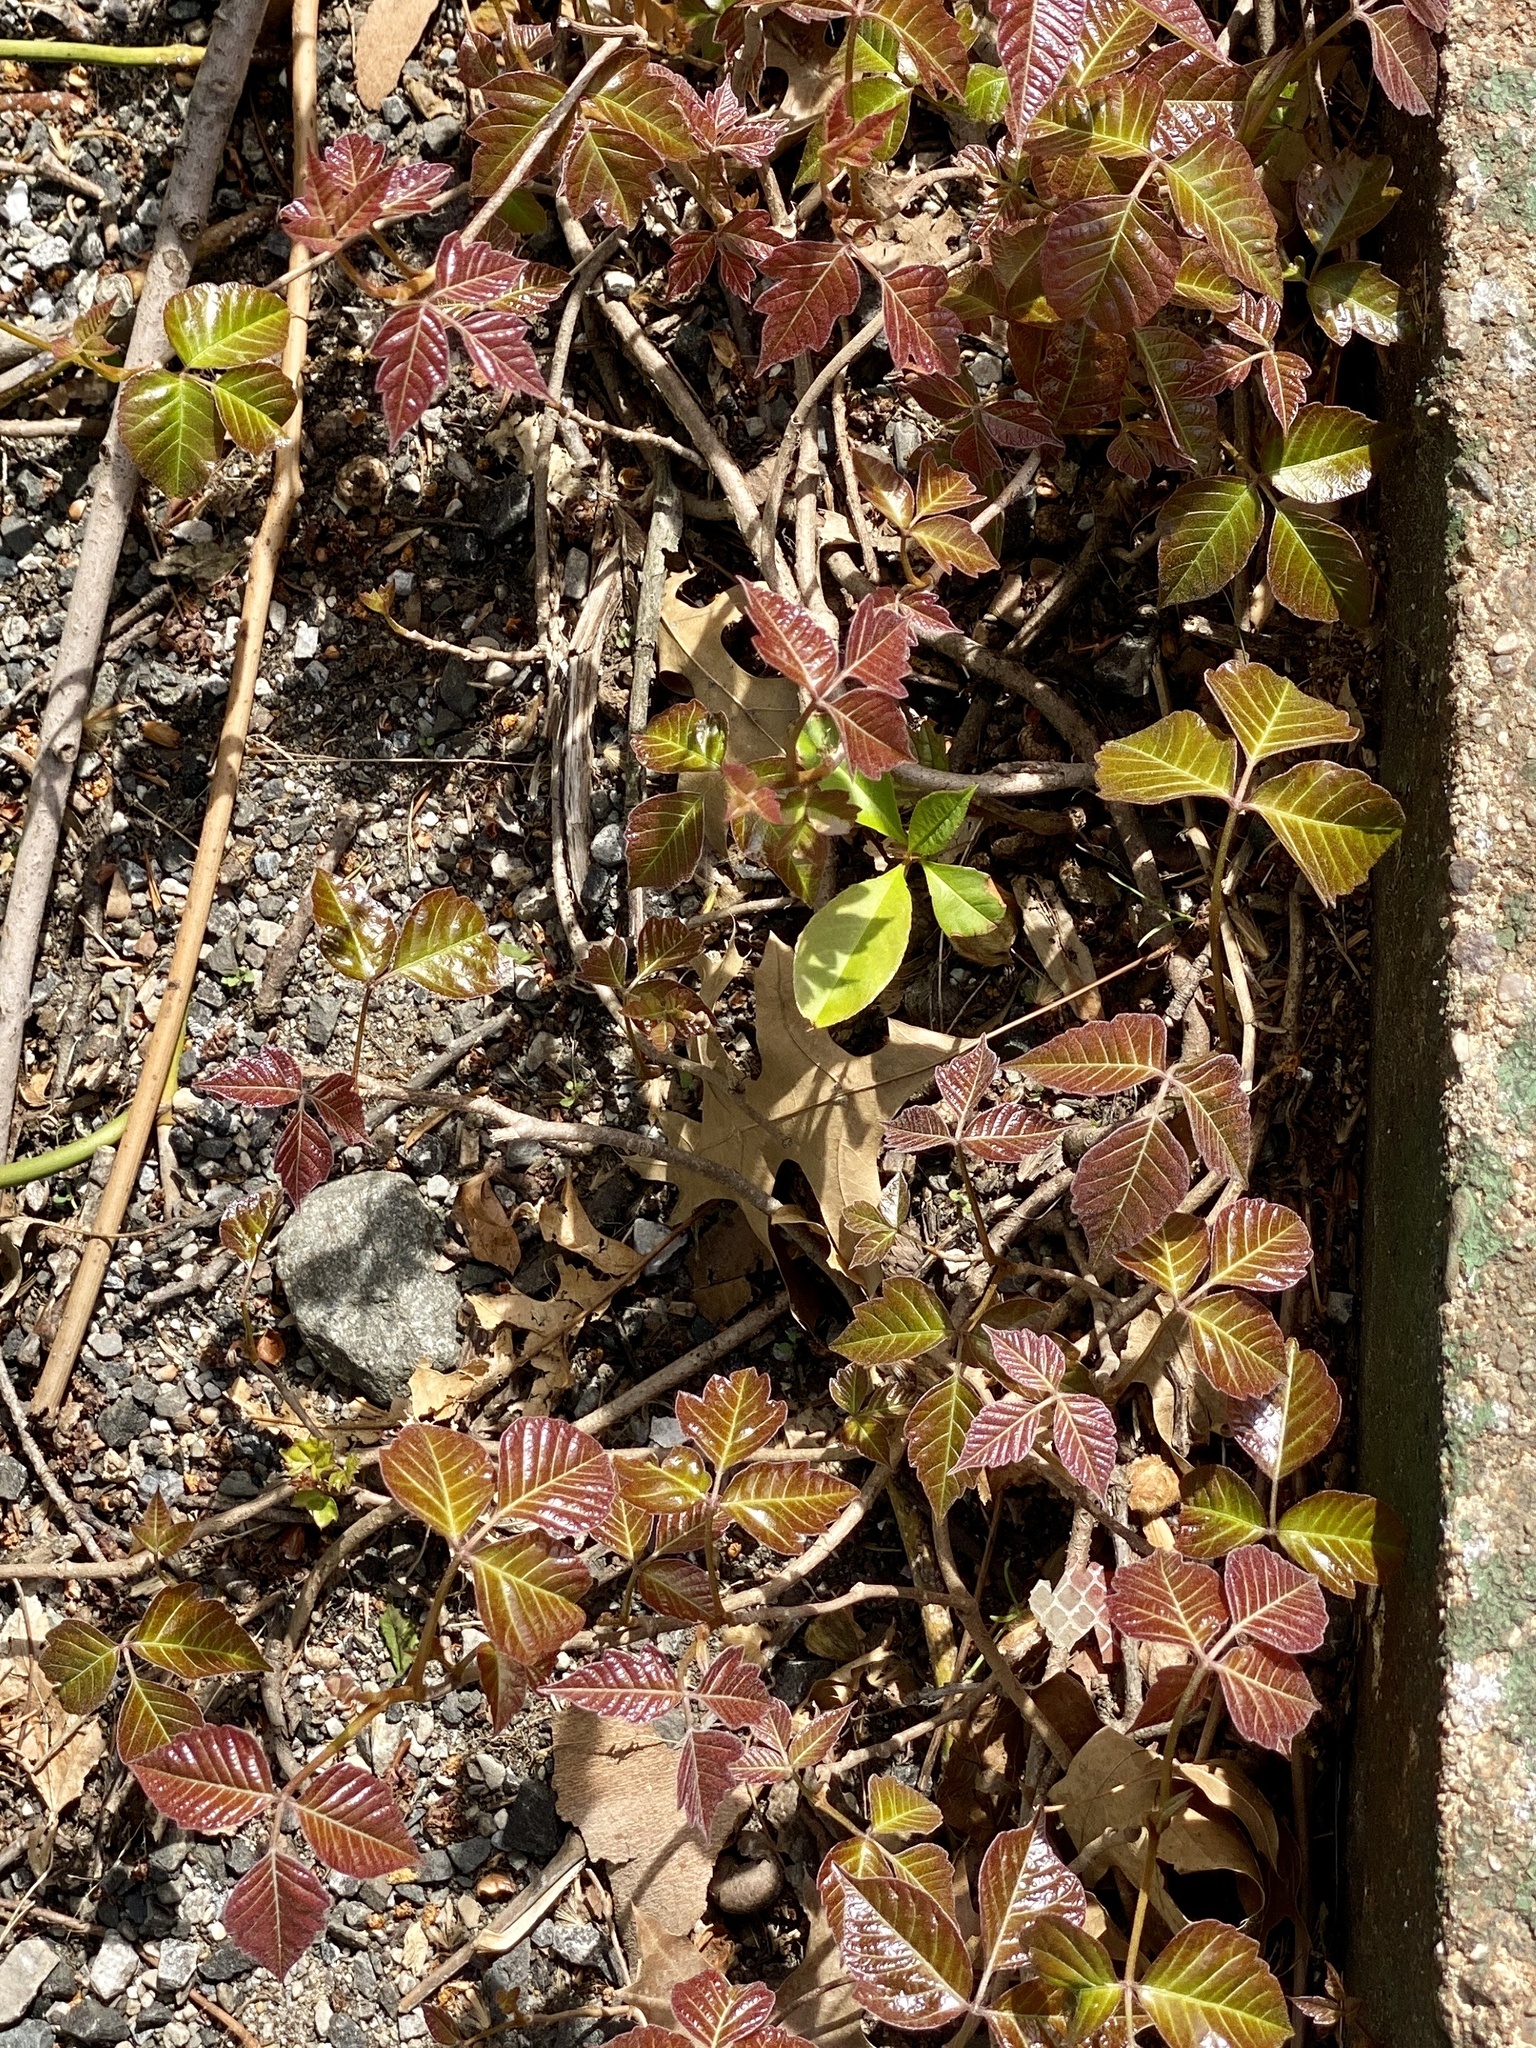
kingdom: Plantae
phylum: Tracheophyta
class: Magnoliopsida
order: Sapindales
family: Anacardiaceae
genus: Toxicodendron
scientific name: Toxicodendron radicans
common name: Poison ivy
